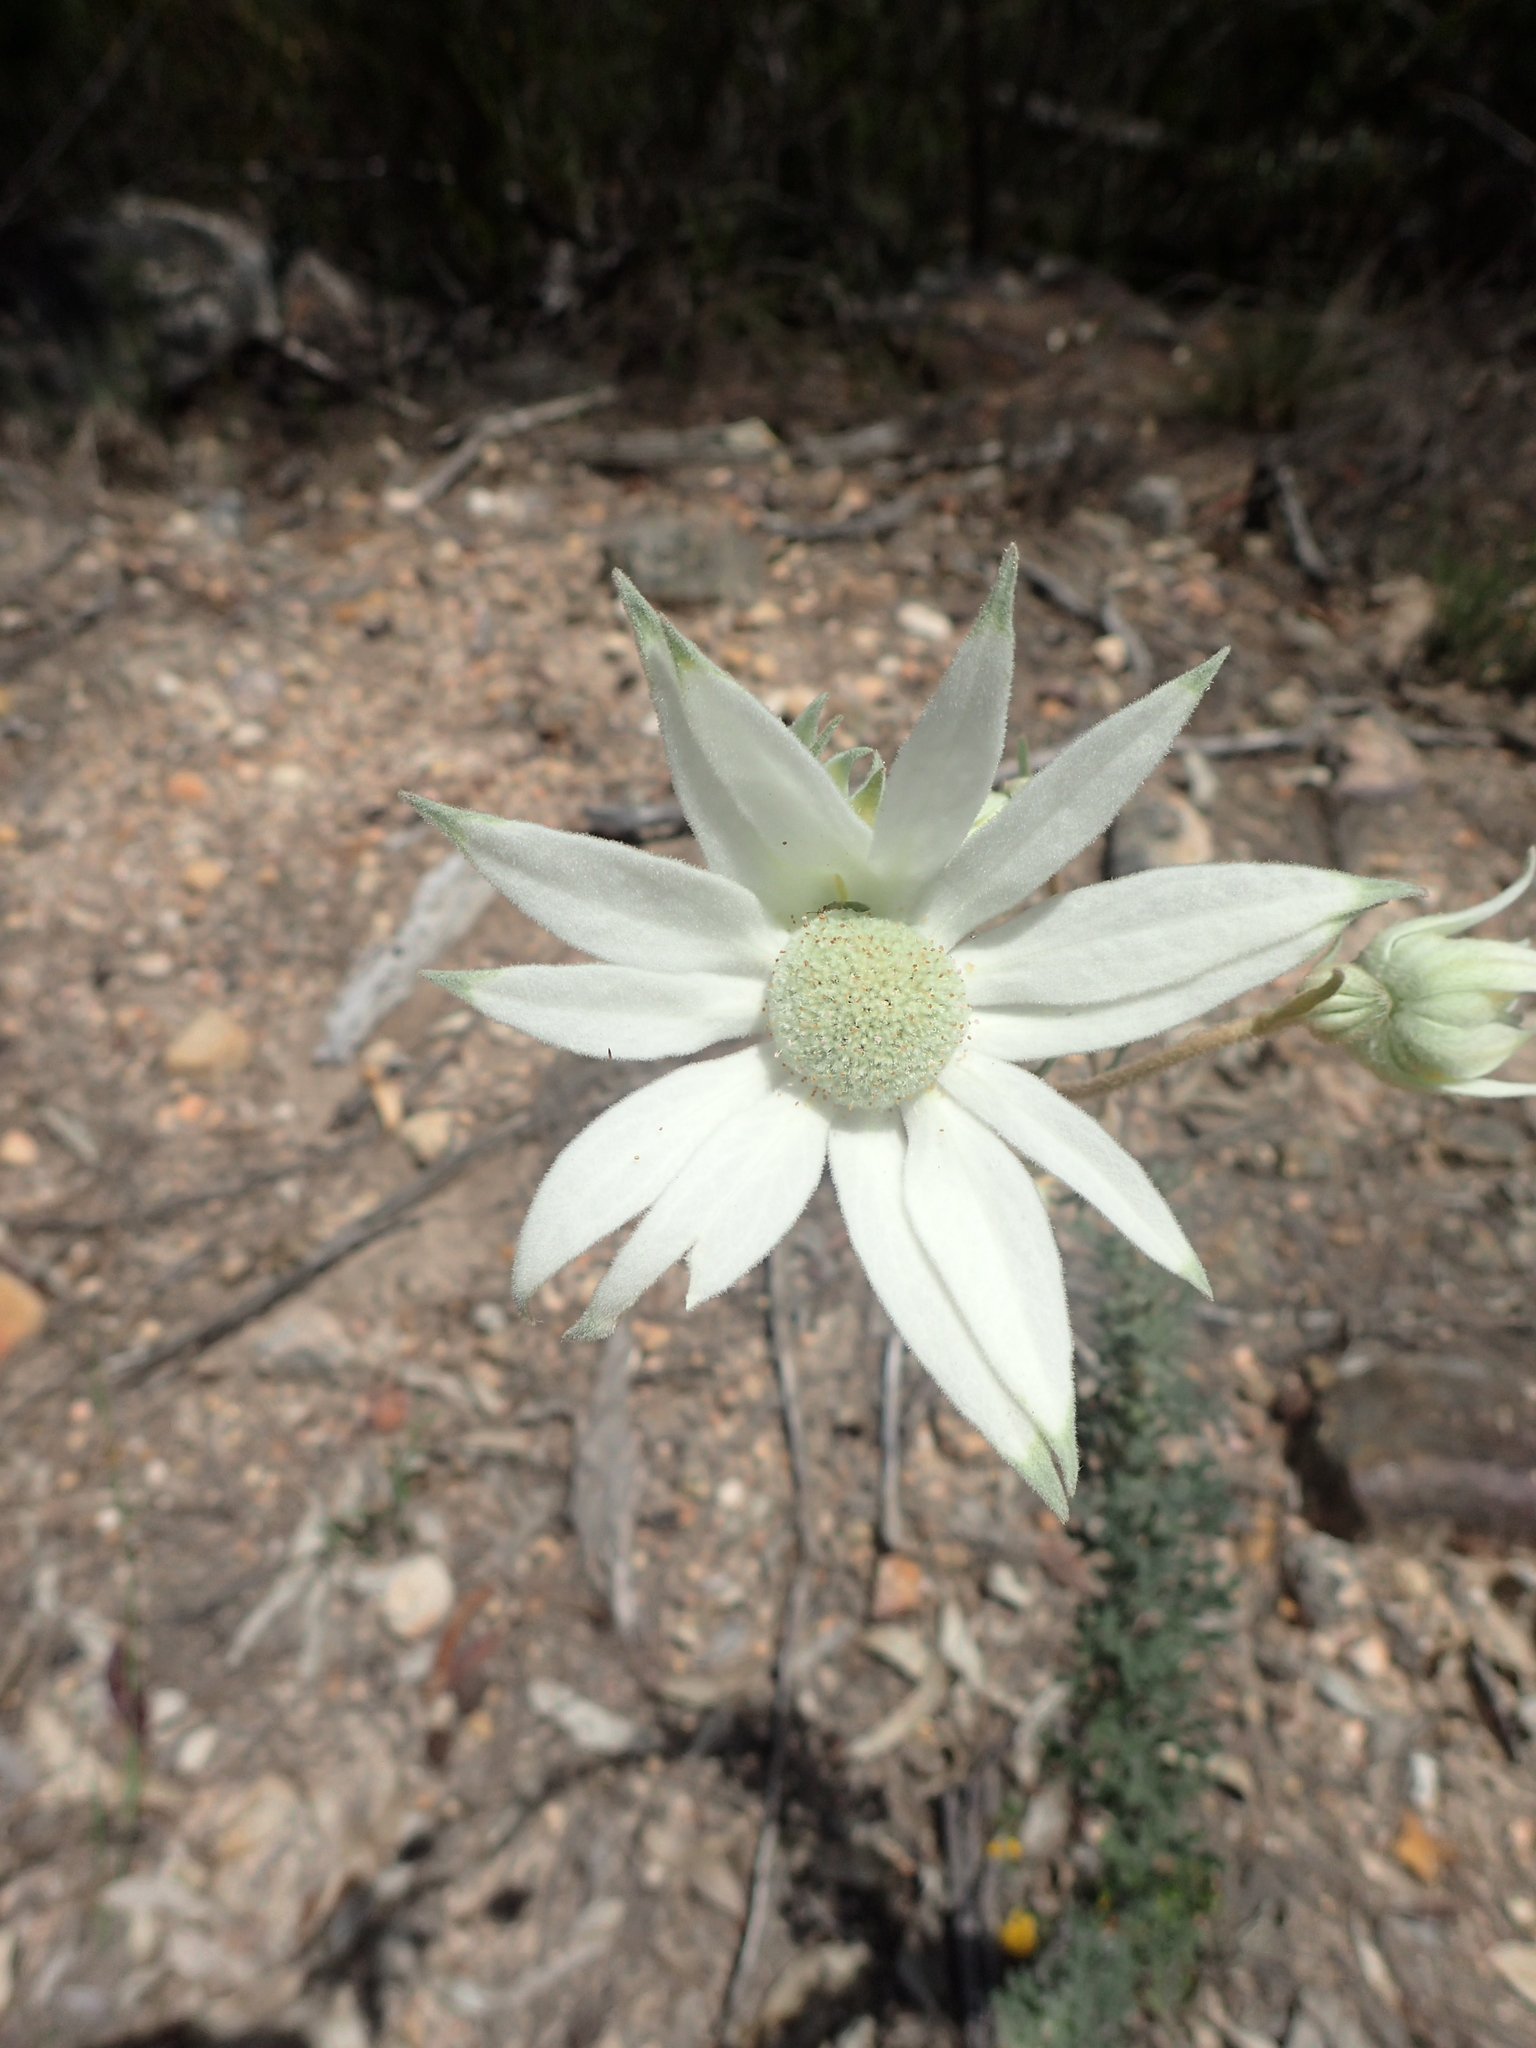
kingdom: Plantae
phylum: Tracheophyta
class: Magnoliopsida
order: Apiales
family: Apiaceae
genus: Actinotus
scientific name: Actinotus helianthi
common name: Flannel-flower
